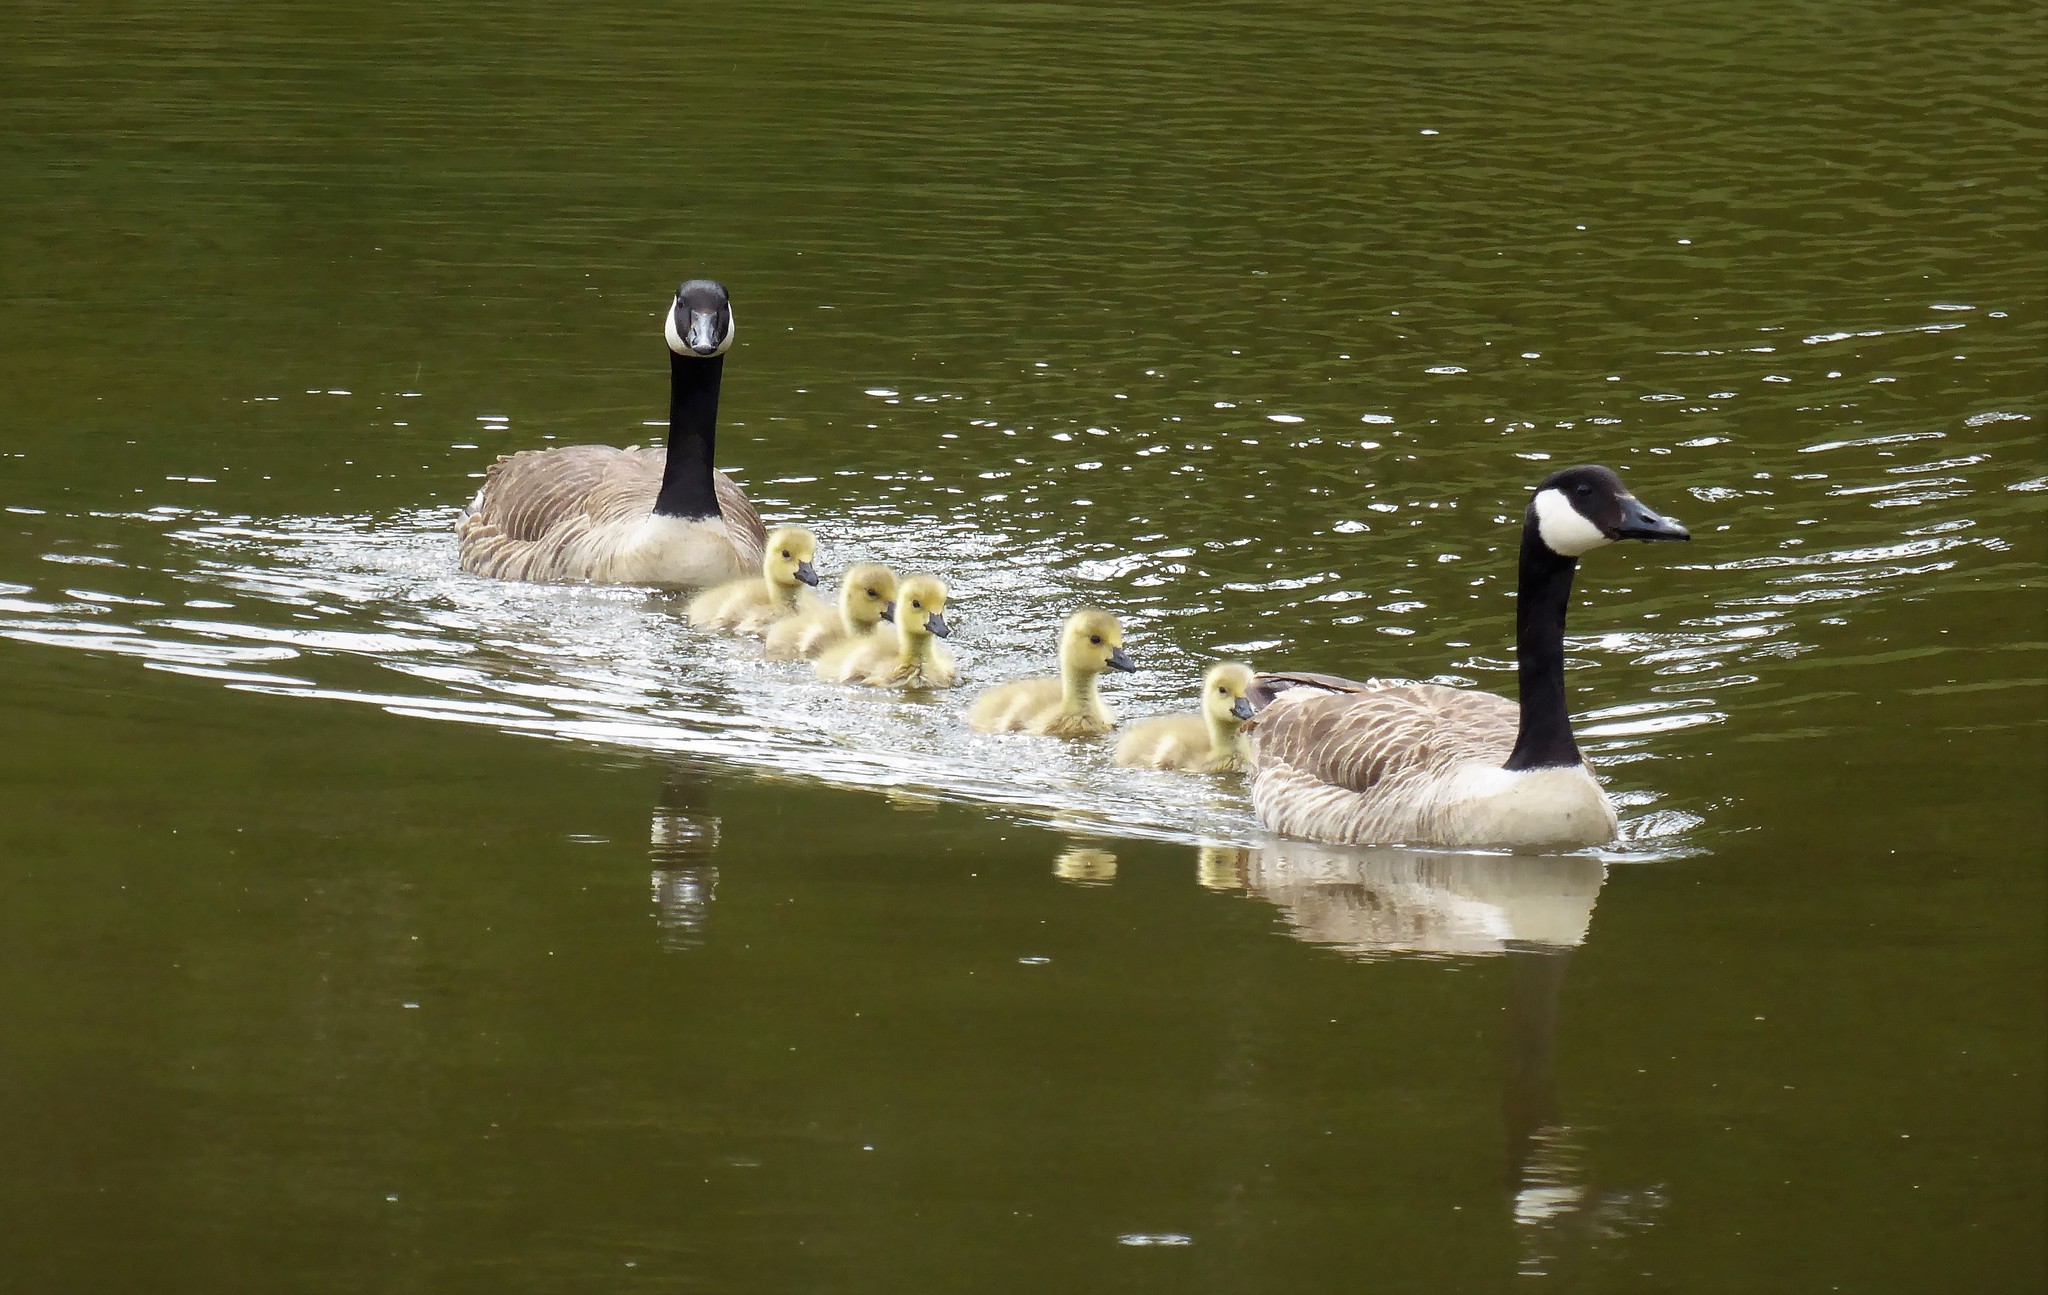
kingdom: Animalia
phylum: Chordata
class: Aves
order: Anseriformes
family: Anatidae
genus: Branta
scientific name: Branta canadensis
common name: Canada goose
